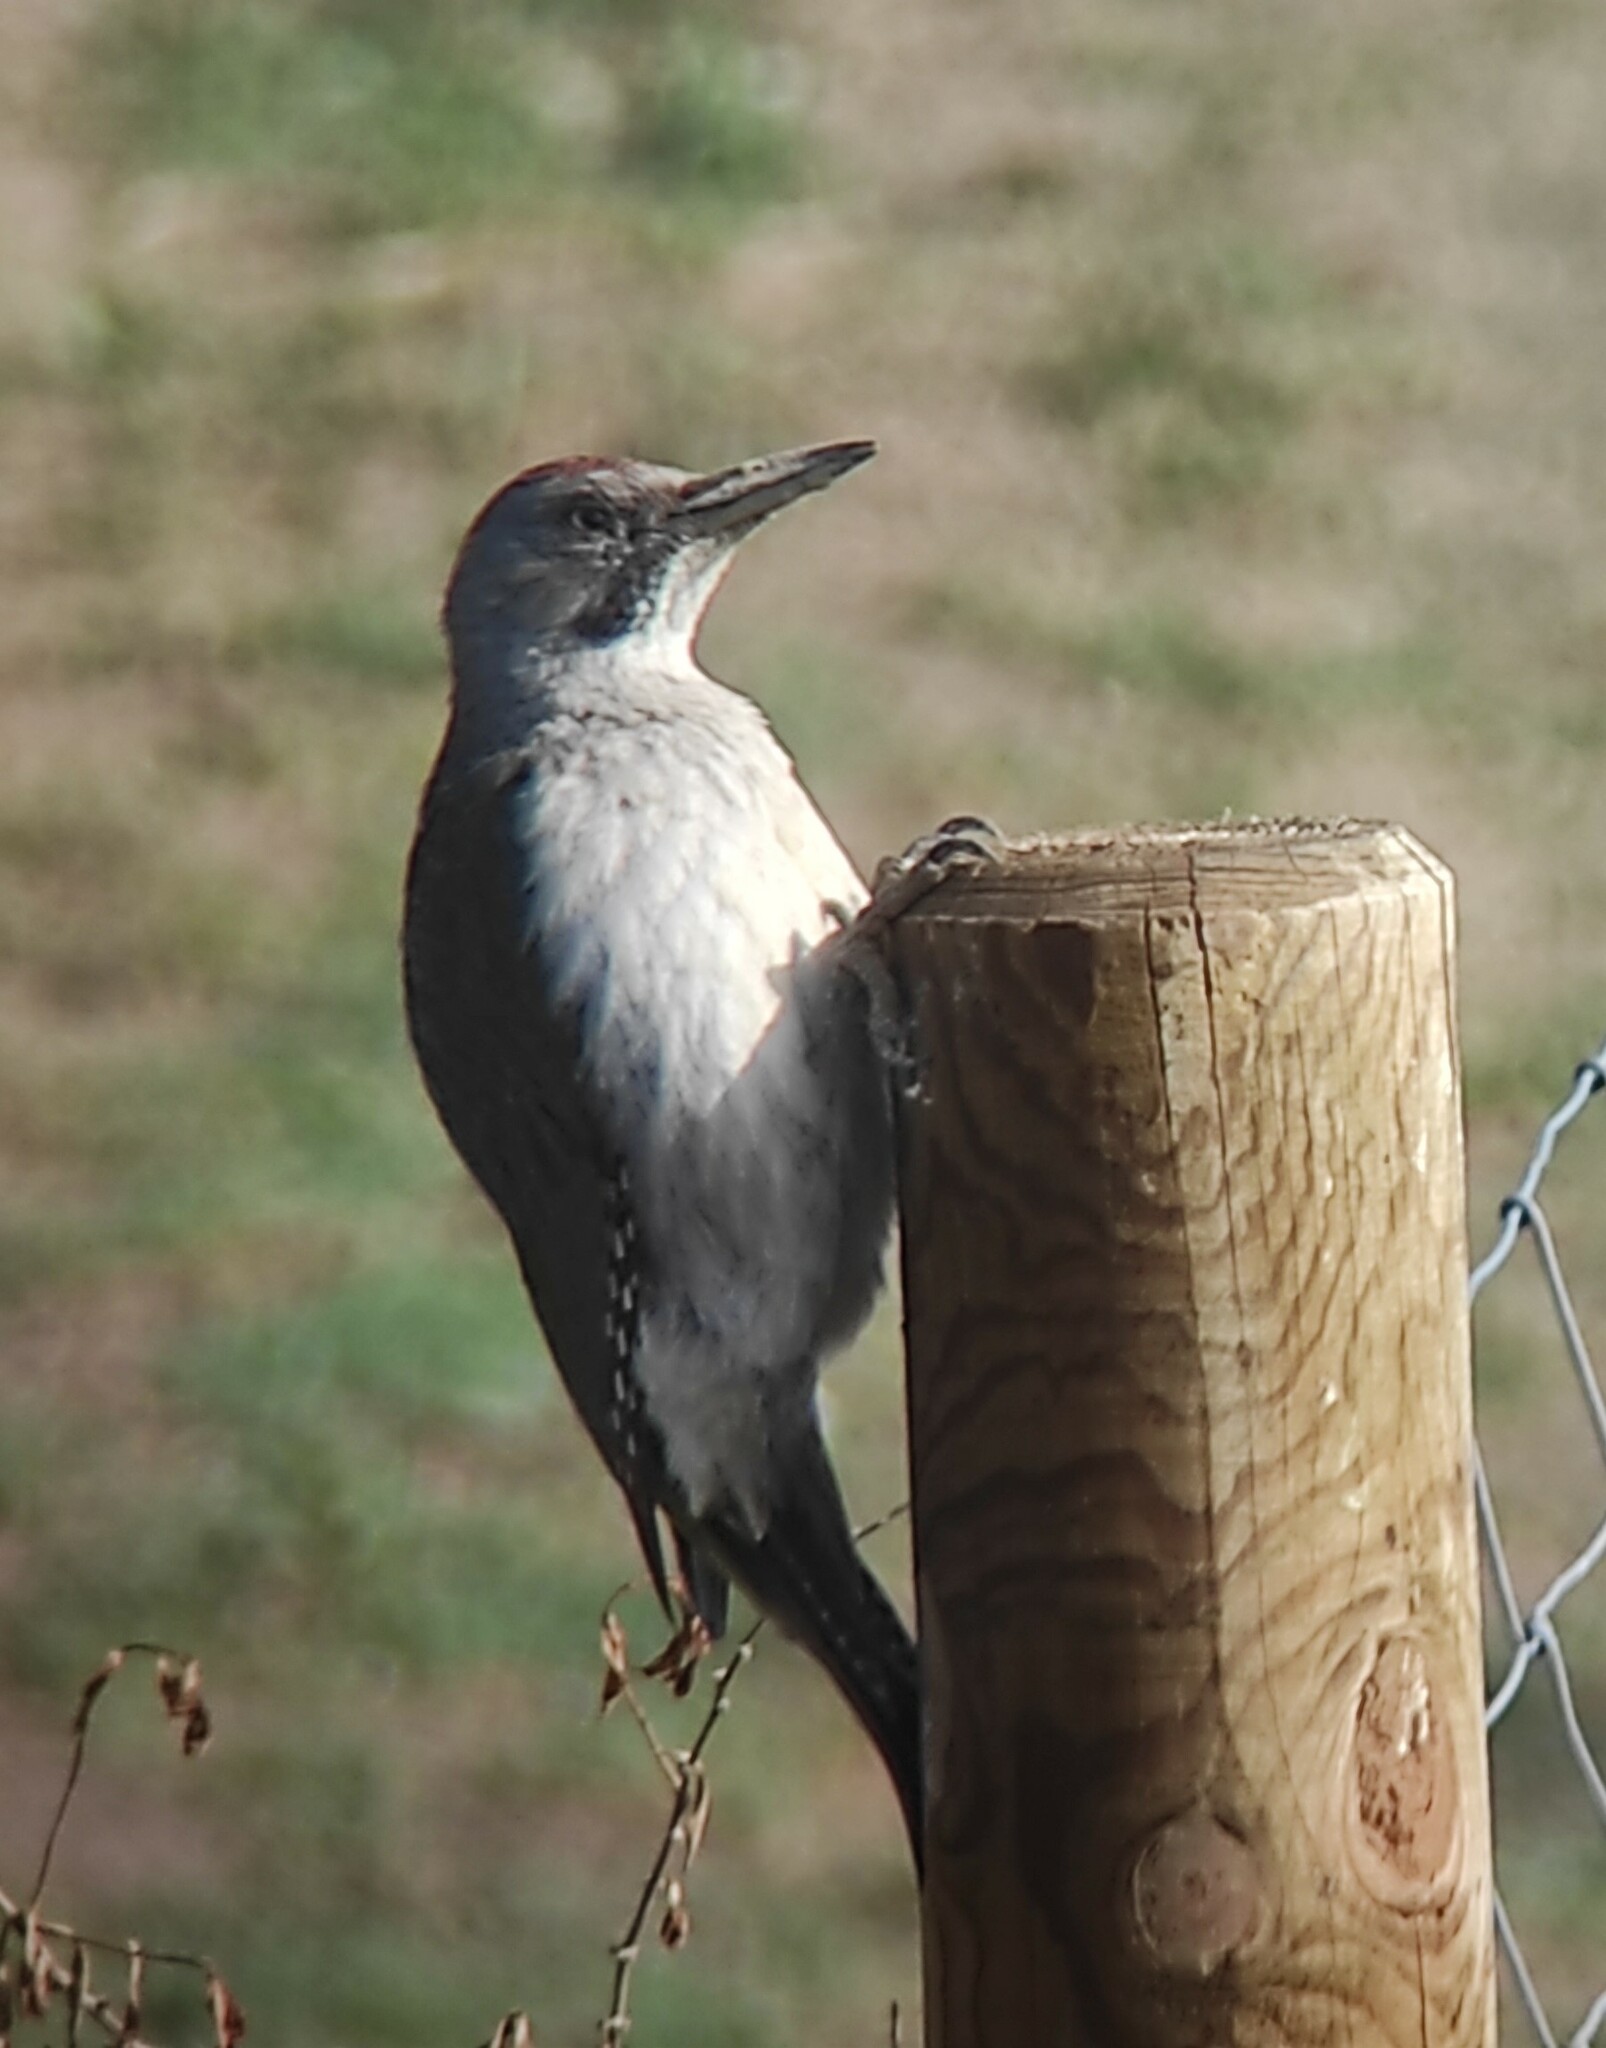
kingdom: Animalia
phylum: Chordata
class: Aves
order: Piciformes
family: Picidae
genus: Picus
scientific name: Picus sharpei
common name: Iberian green woodpecker
